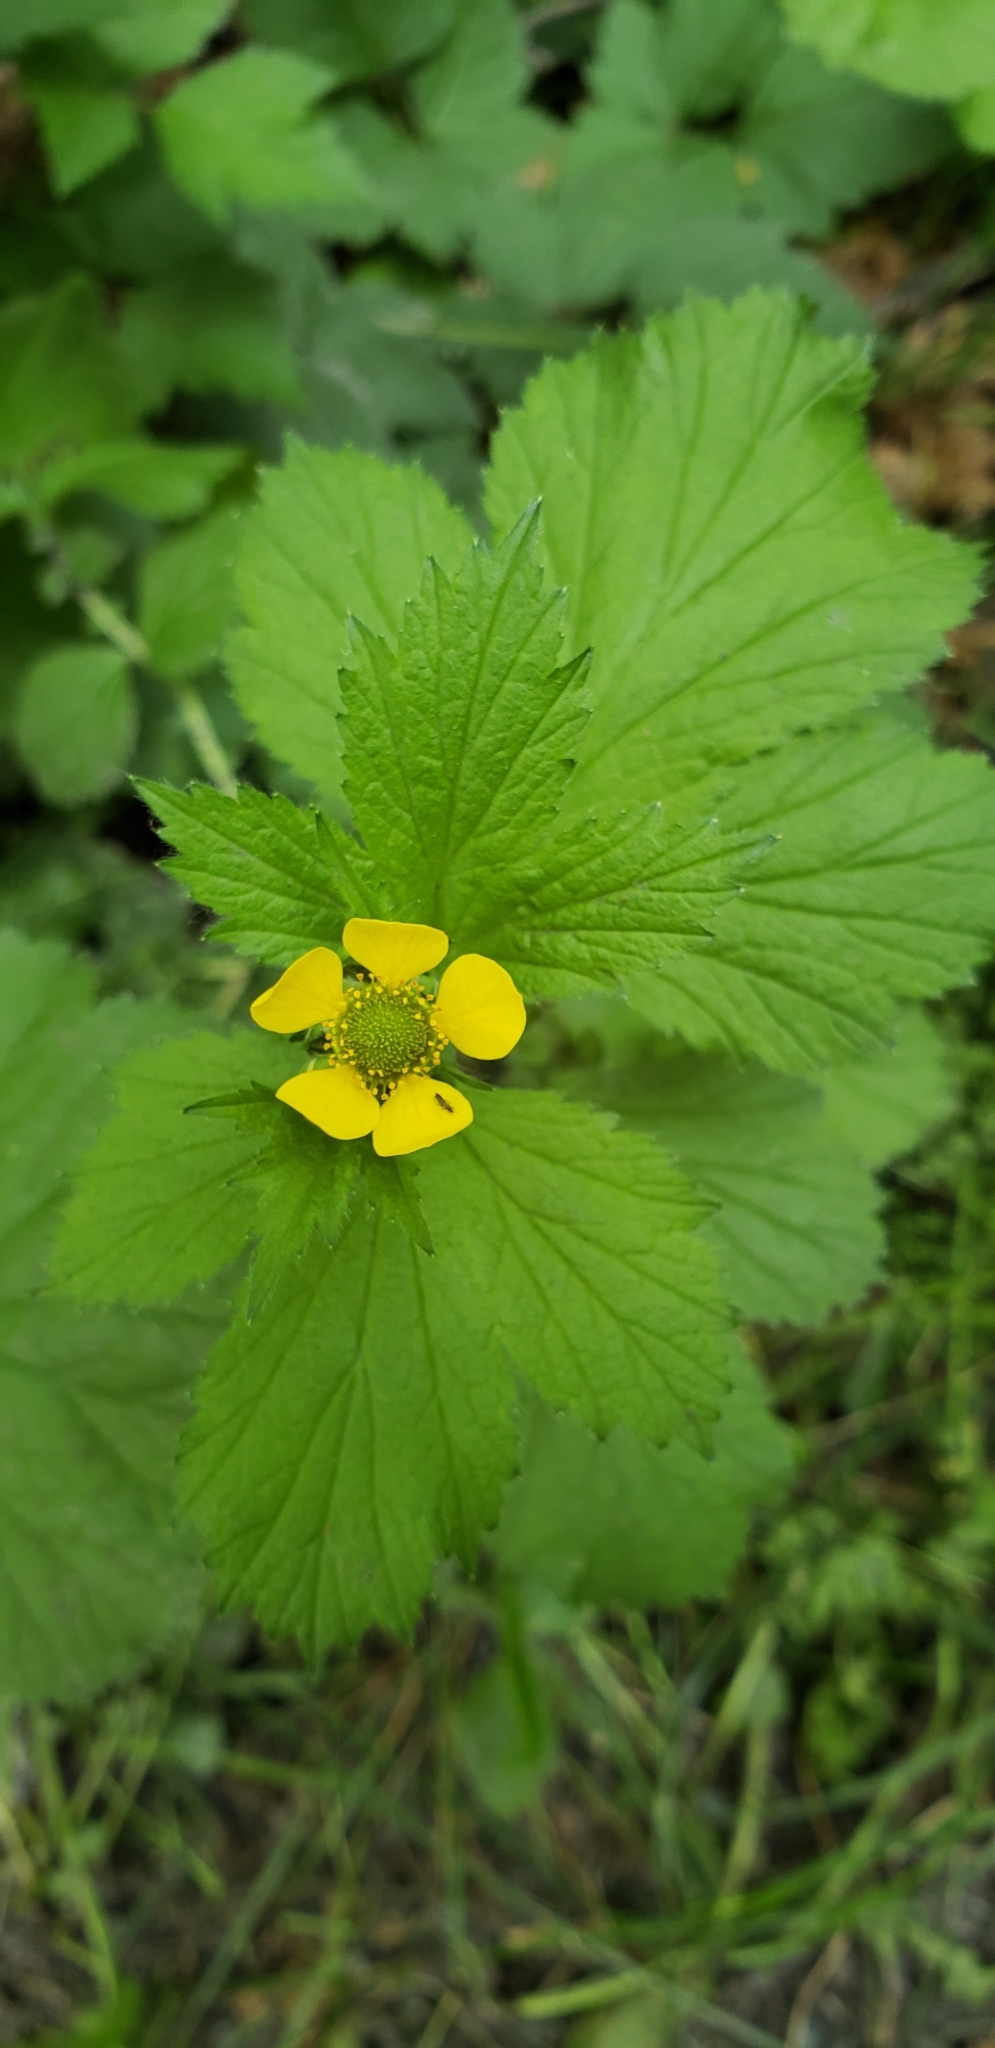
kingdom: Plantae
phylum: Tracheophyta
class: Magnoliopsida
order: Rosales
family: Rosaceae
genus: Geum
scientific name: Geum macrophyllum
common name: Large-leaved avens
